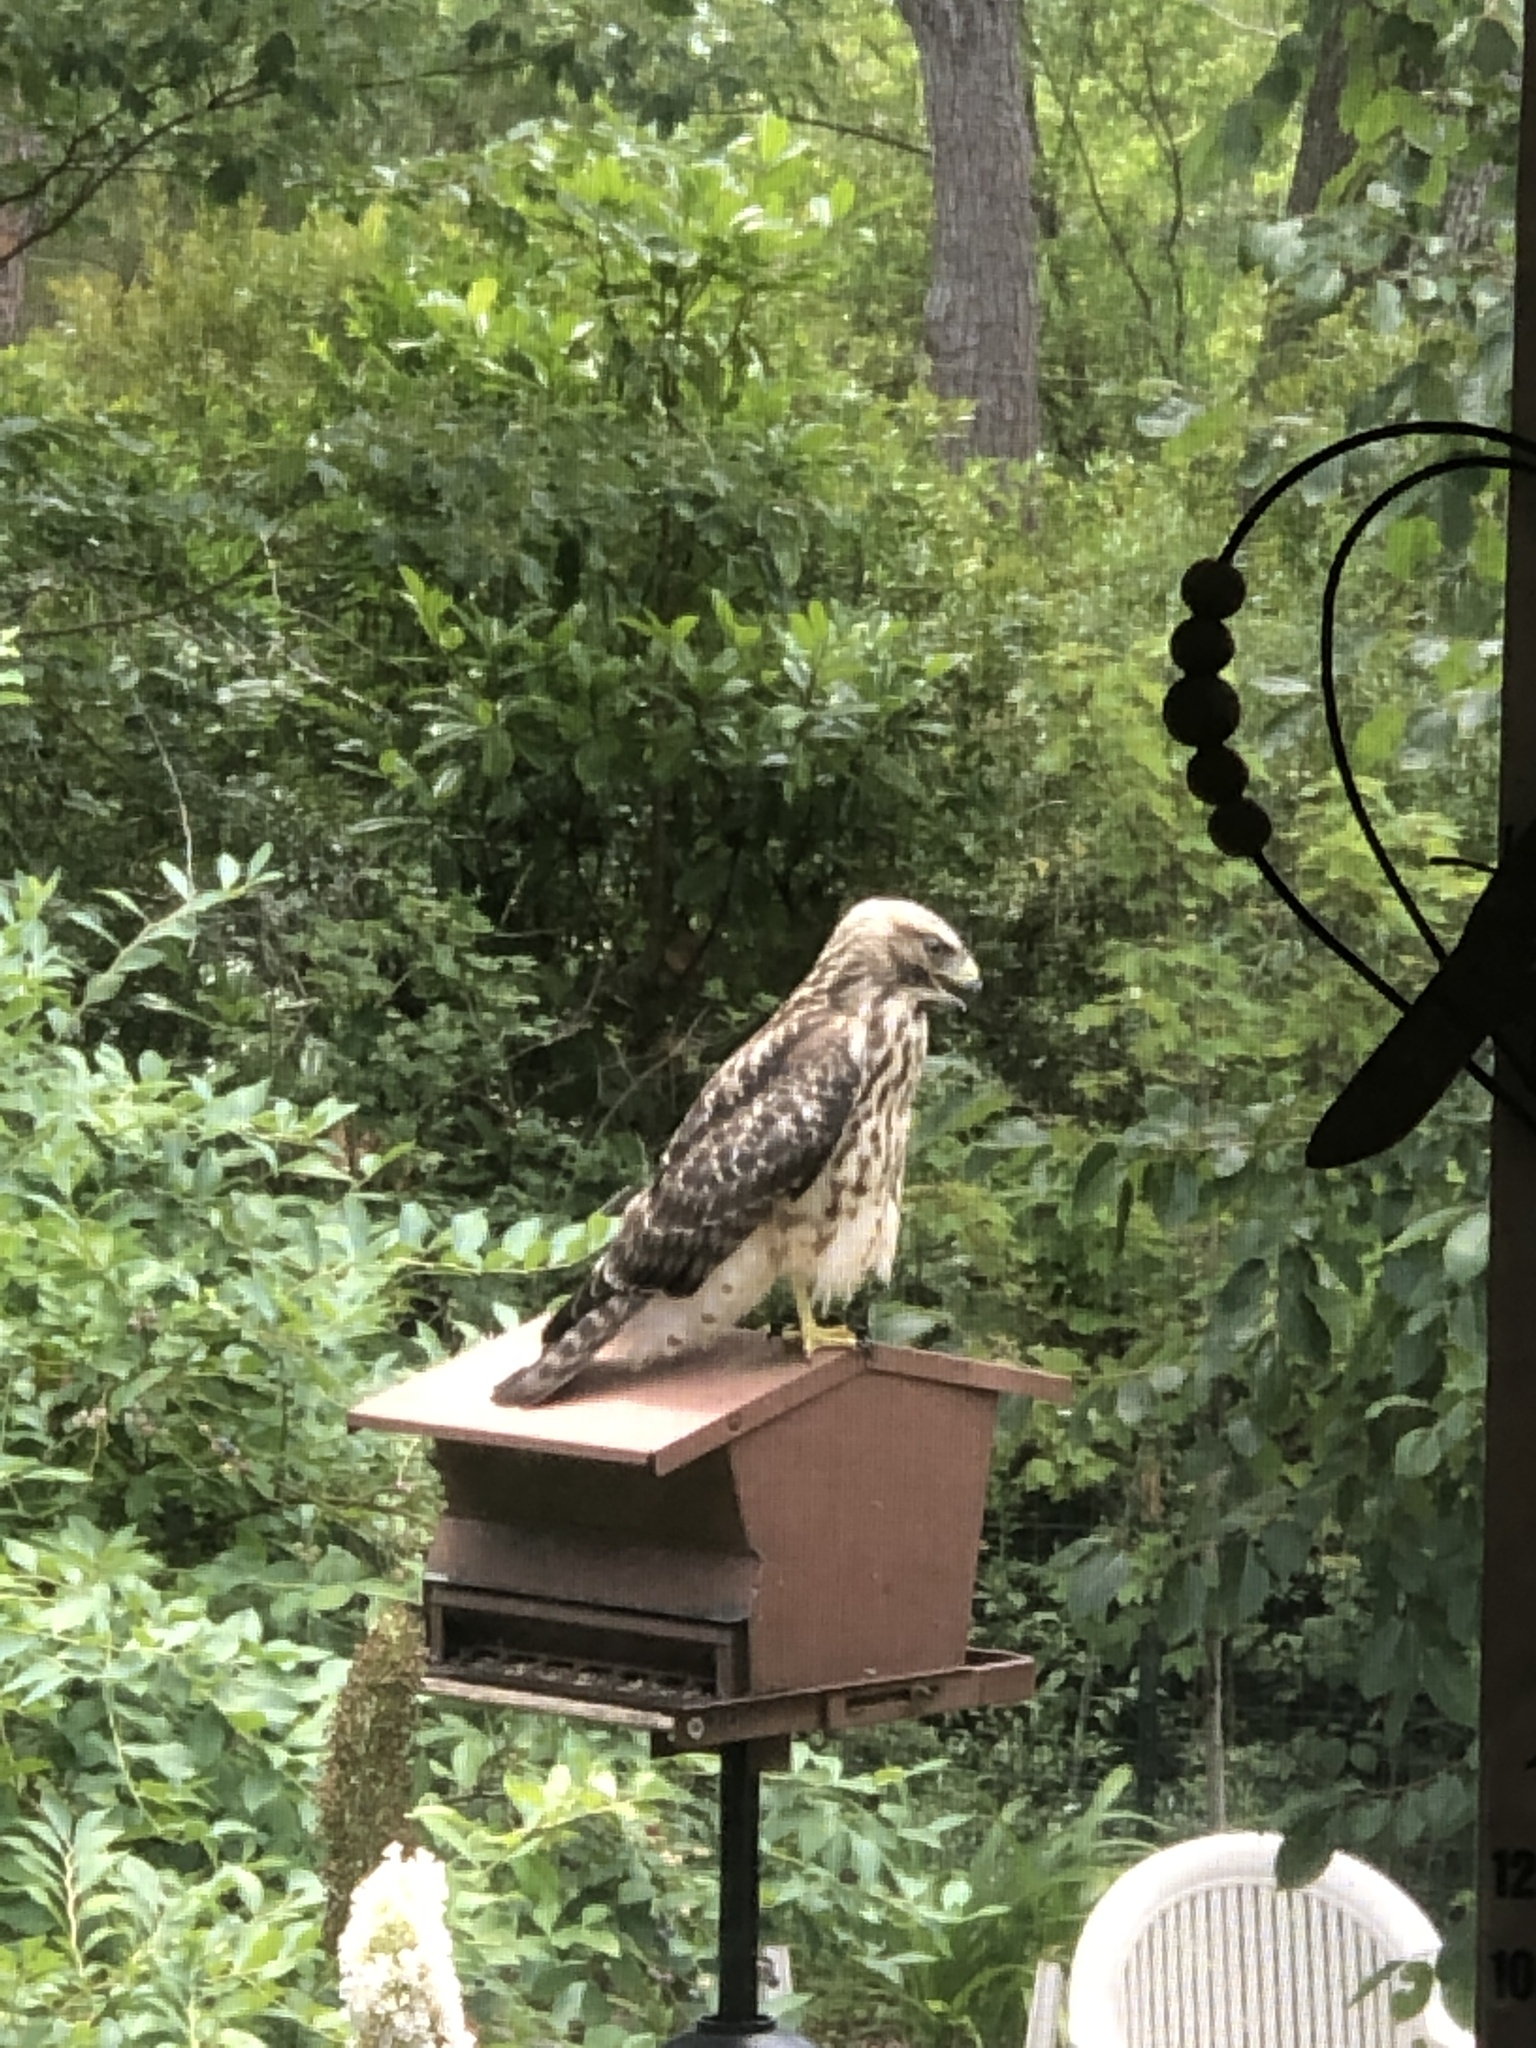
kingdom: Animalia
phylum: Chordata
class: Aves
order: Accipitriformes
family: Accipitridae
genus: Buteo
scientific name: Buteo lineatus
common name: Red-shouldered hawk
